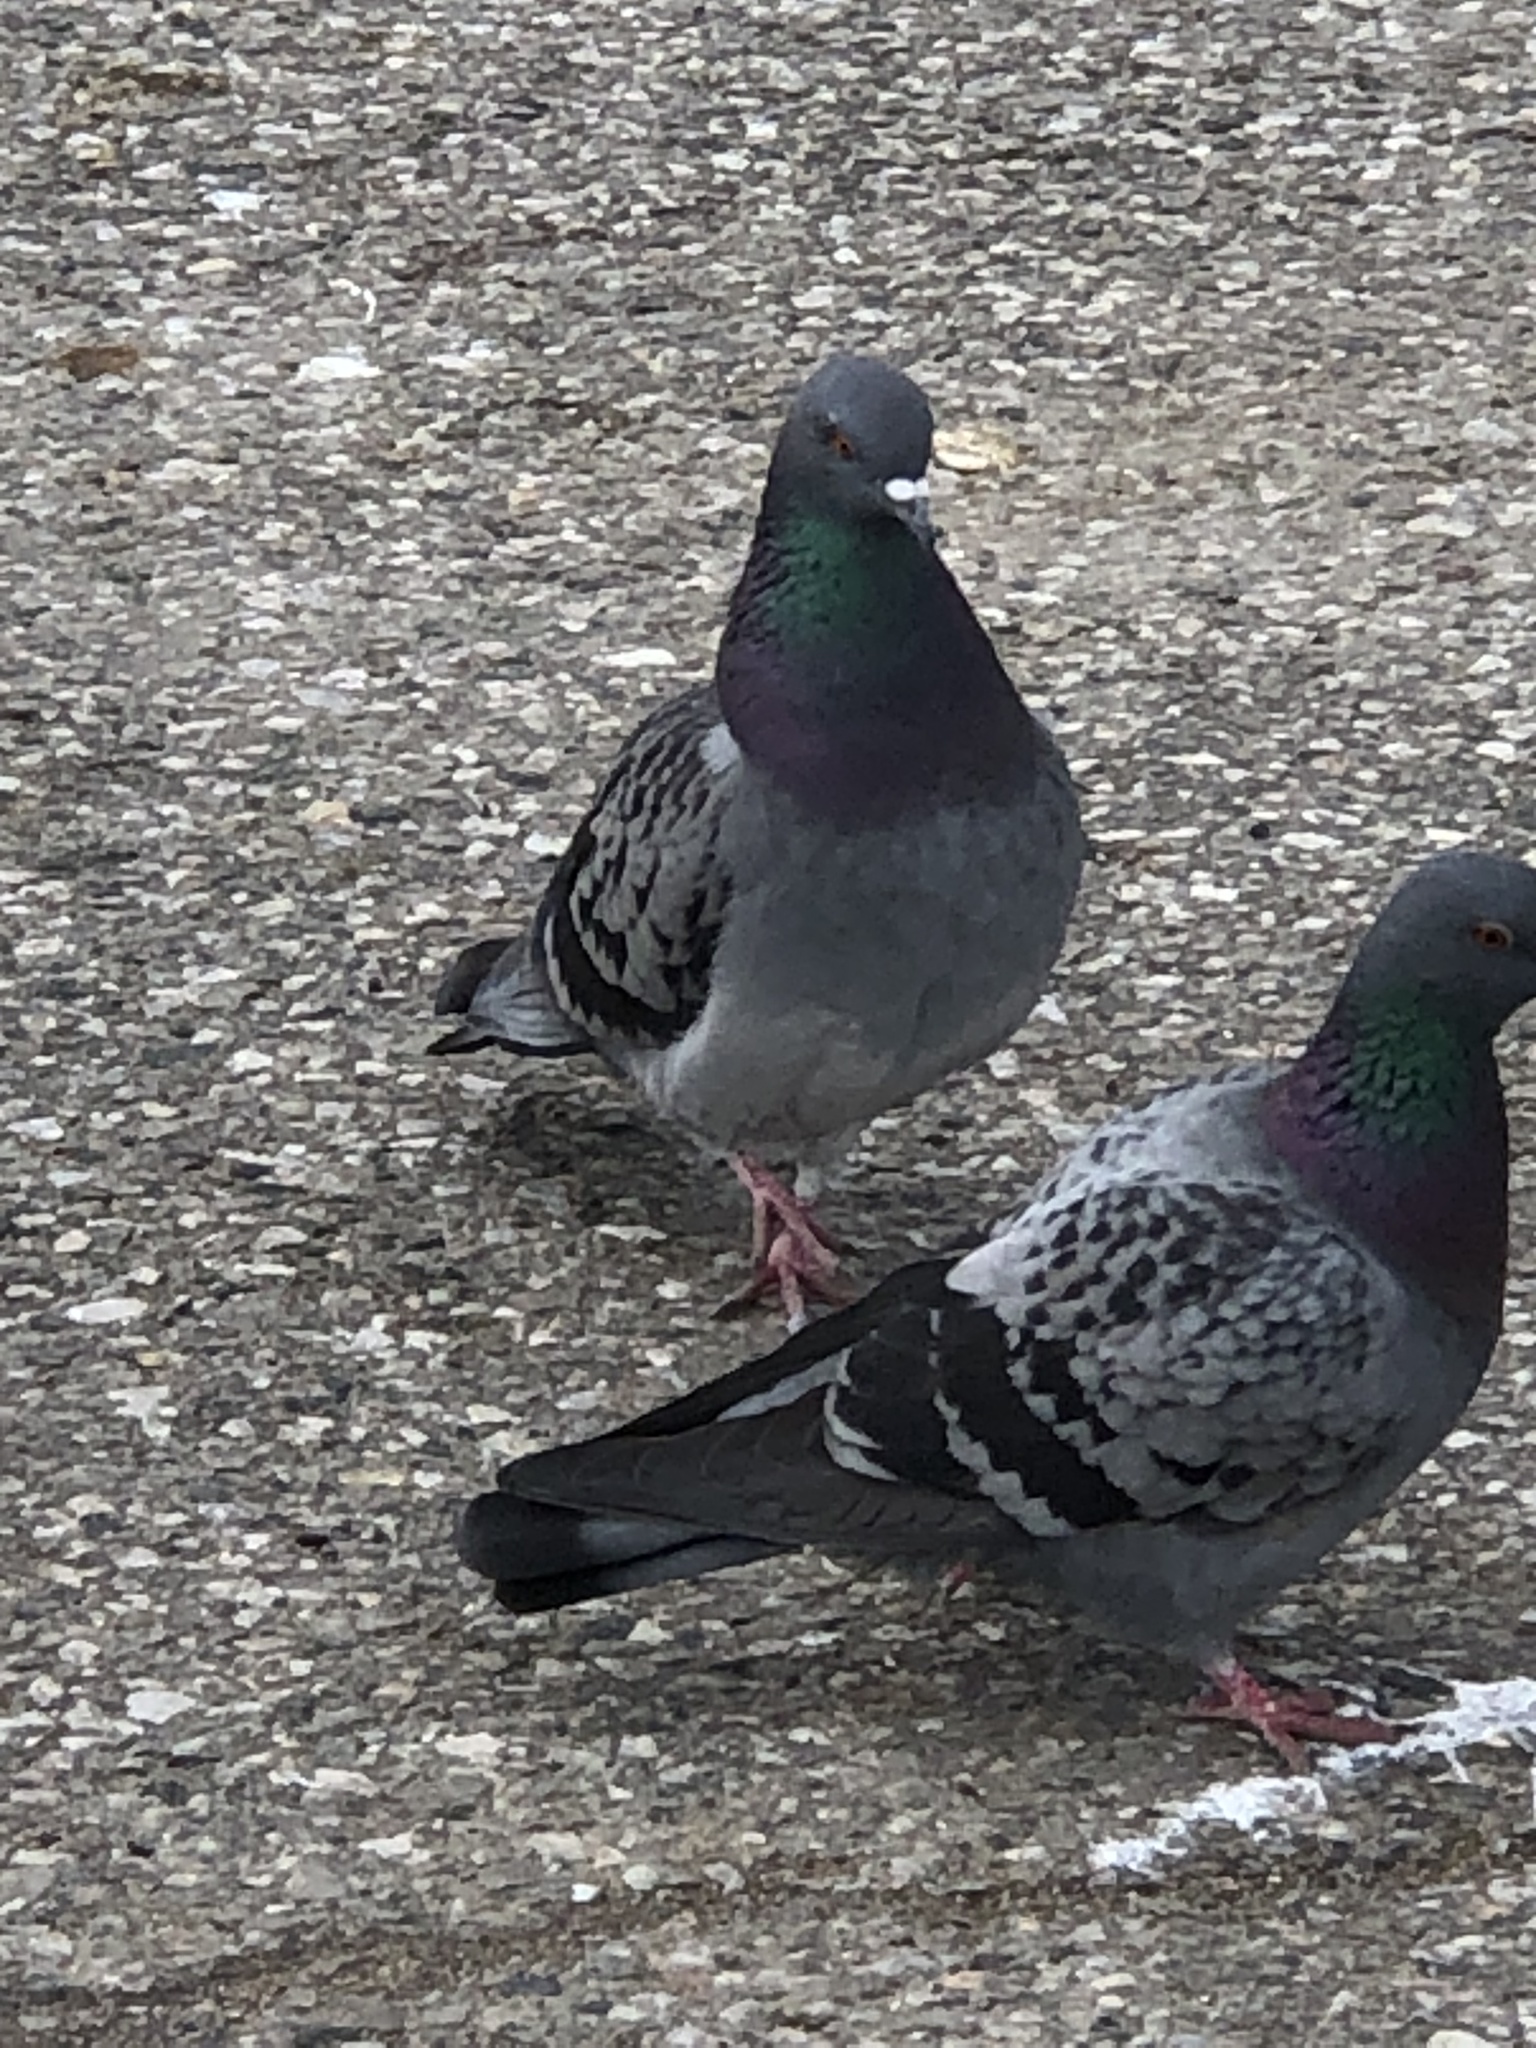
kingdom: Animalia
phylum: Chordata
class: Aves
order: Columbiformes
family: Columbidae
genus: Columba
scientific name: Columba livia
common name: Rock pigeon
